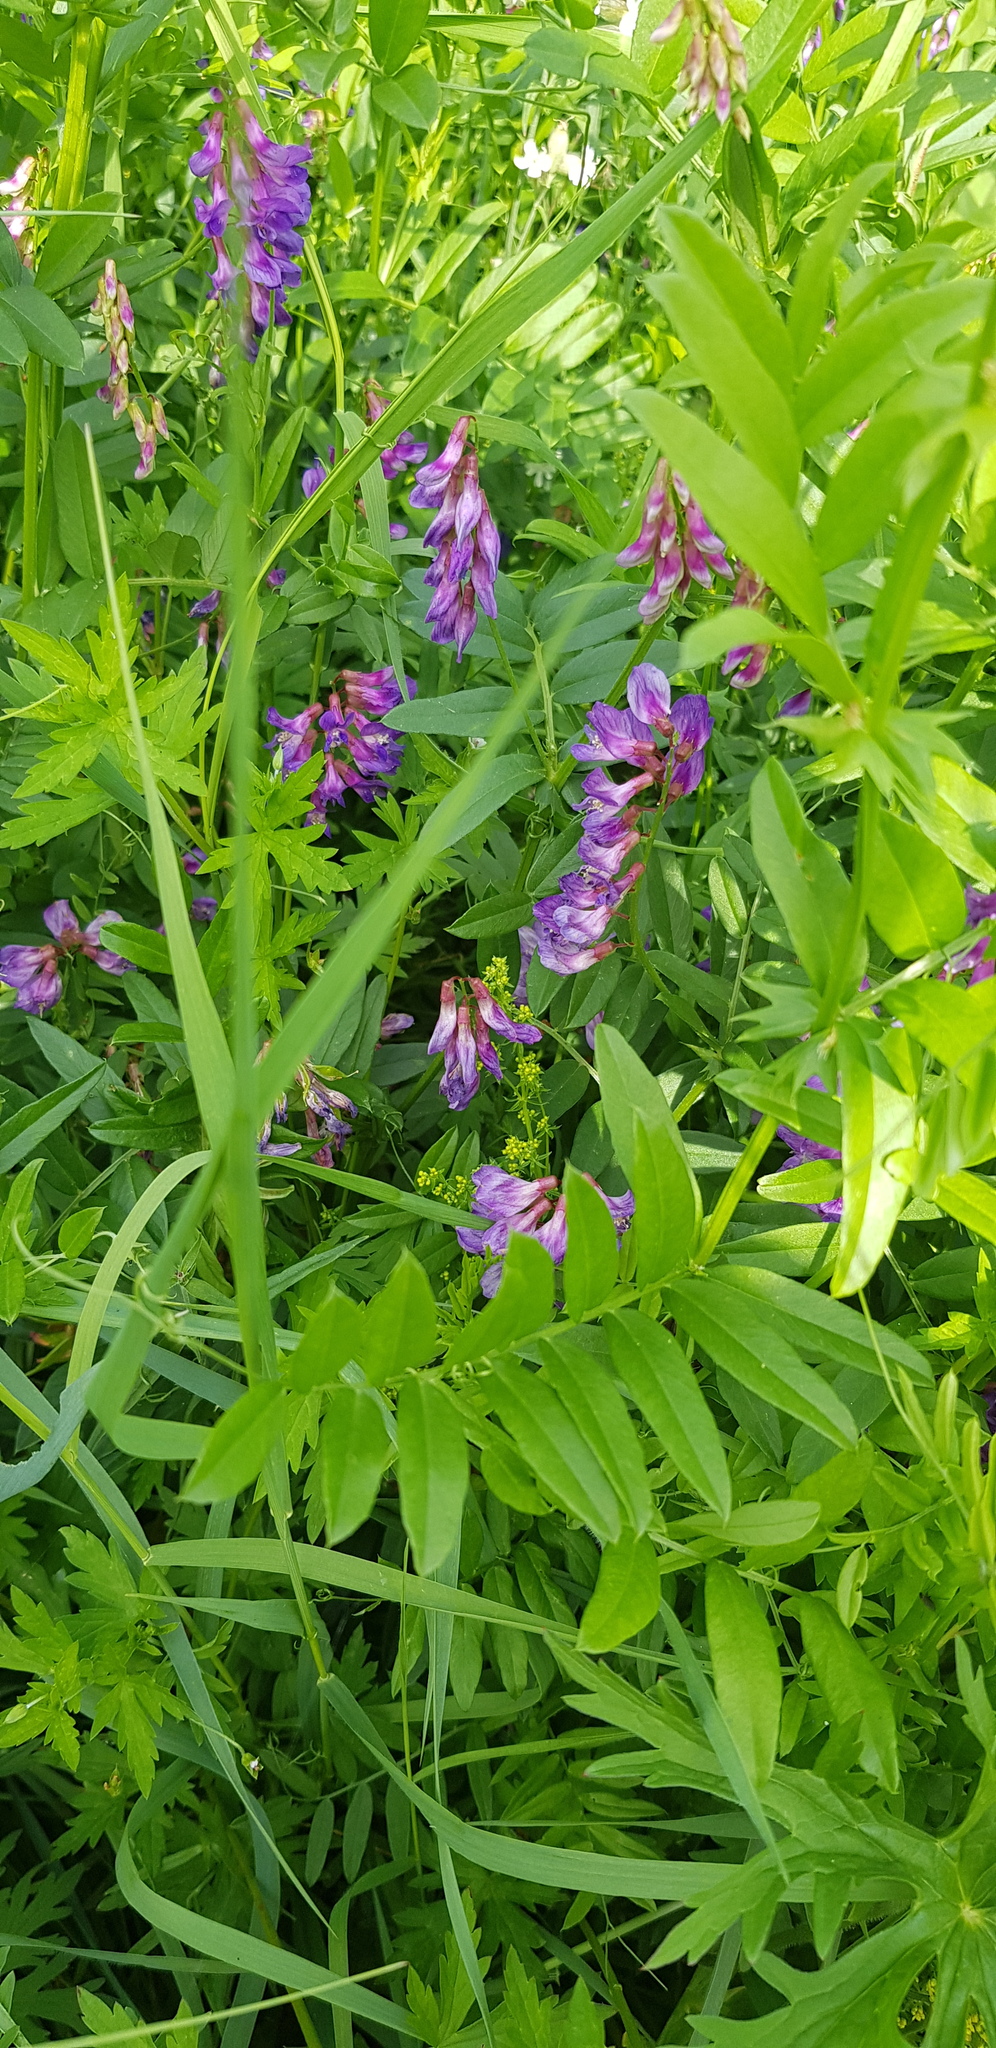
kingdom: Plantae
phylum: Tracheophyta
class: Magnoliopsida
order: Fabales
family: Fabaceae
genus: Vicia
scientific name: Vicia amoena
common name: Cheder ebs
